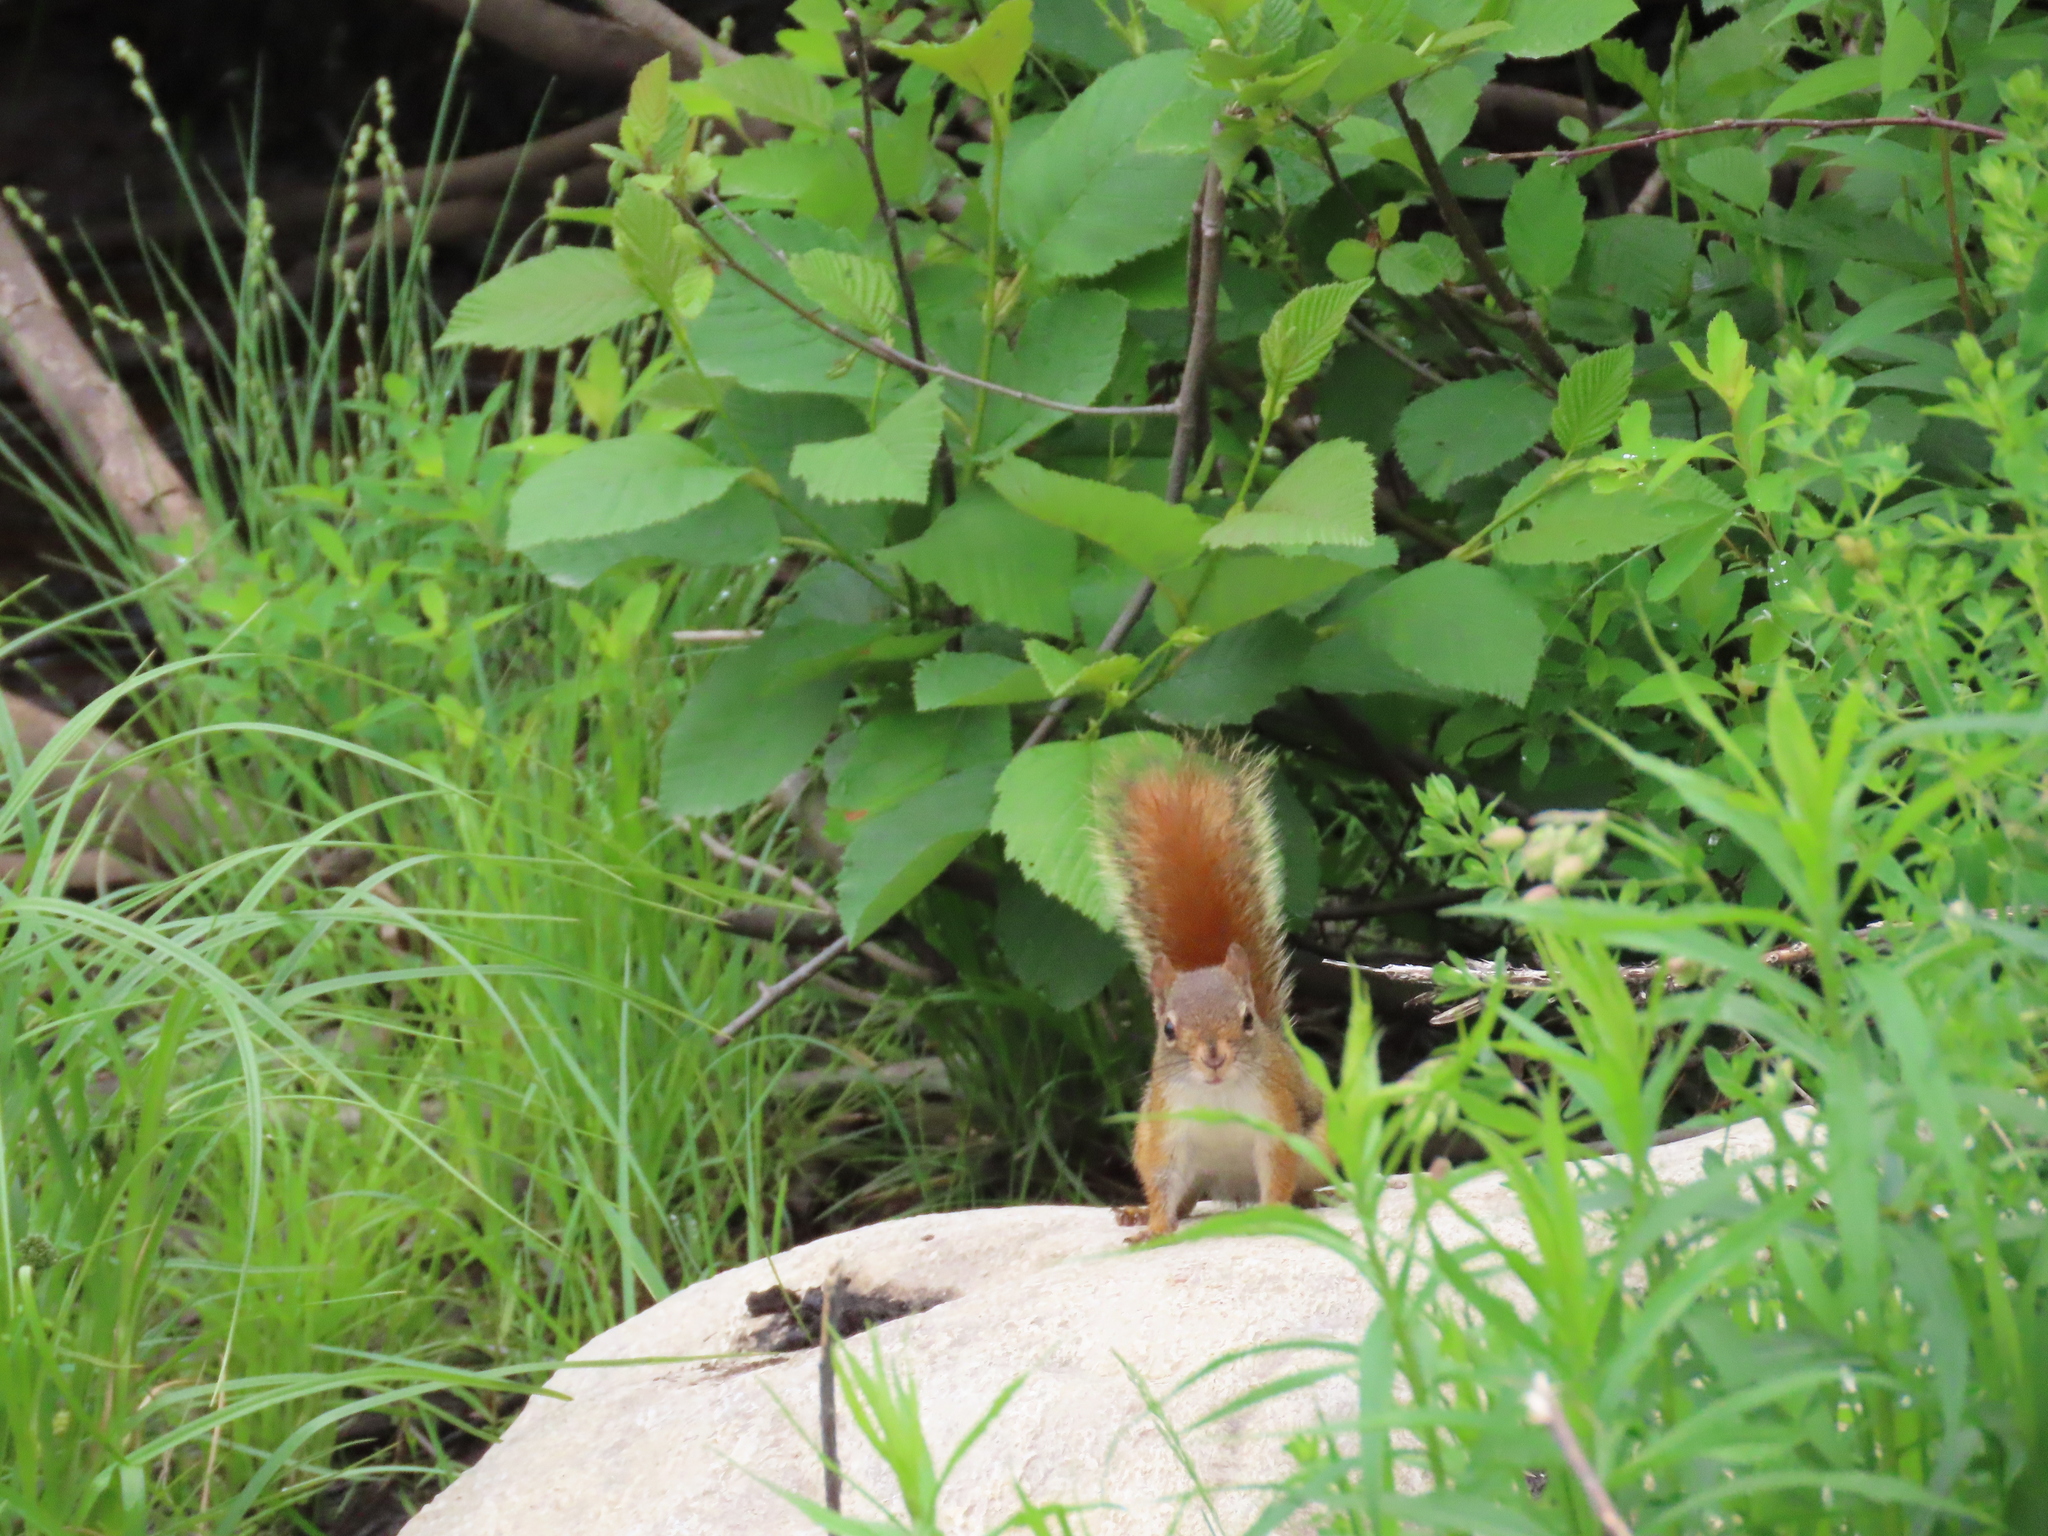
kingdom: Animalia
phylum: Chordata
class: Mammalia
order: Rodentia
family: Sciuridae
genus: Tamiasciurus
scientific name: Tamiasciurus hudsonicus
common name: Red squirrel
